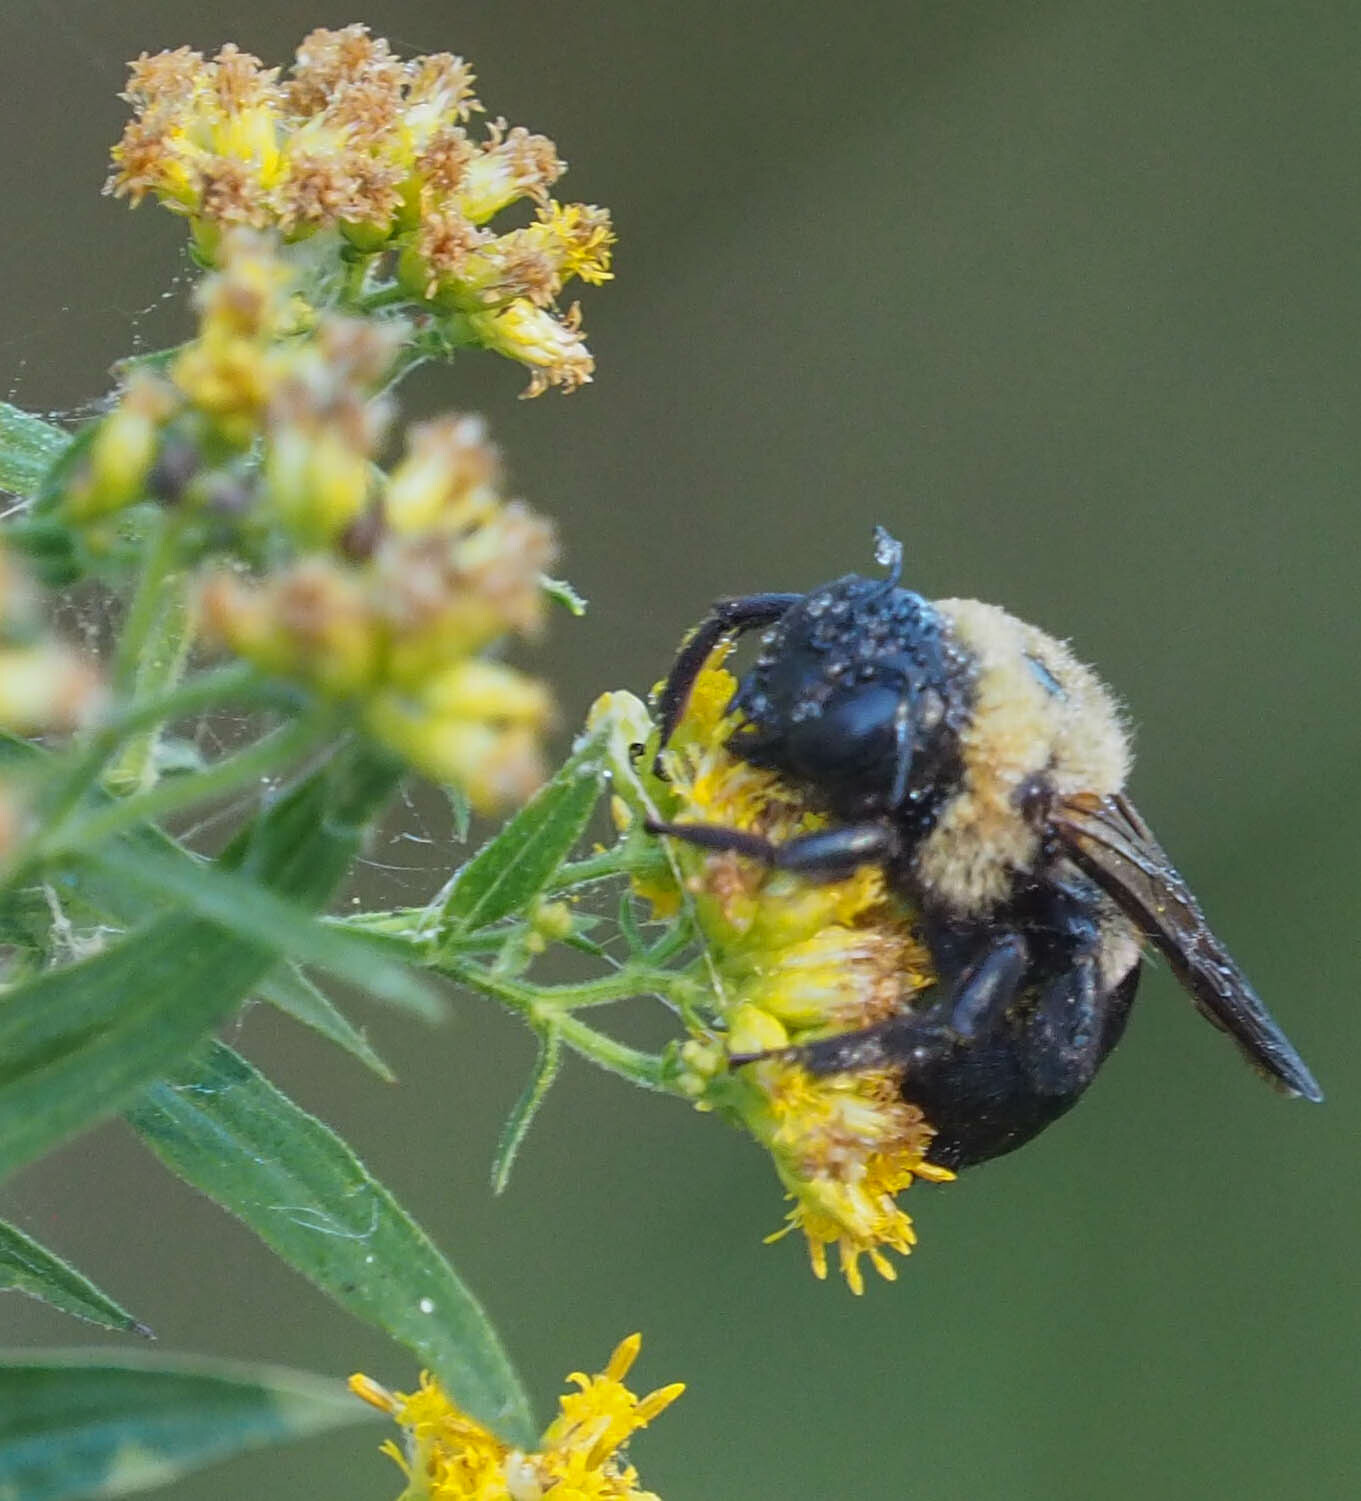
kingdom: Animalia
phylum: Arthropoda
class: Insecta
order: Hymenoptera
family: Apidae
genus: Xylocopa
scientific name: Xylocopa virginica
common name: Carpenter bee
